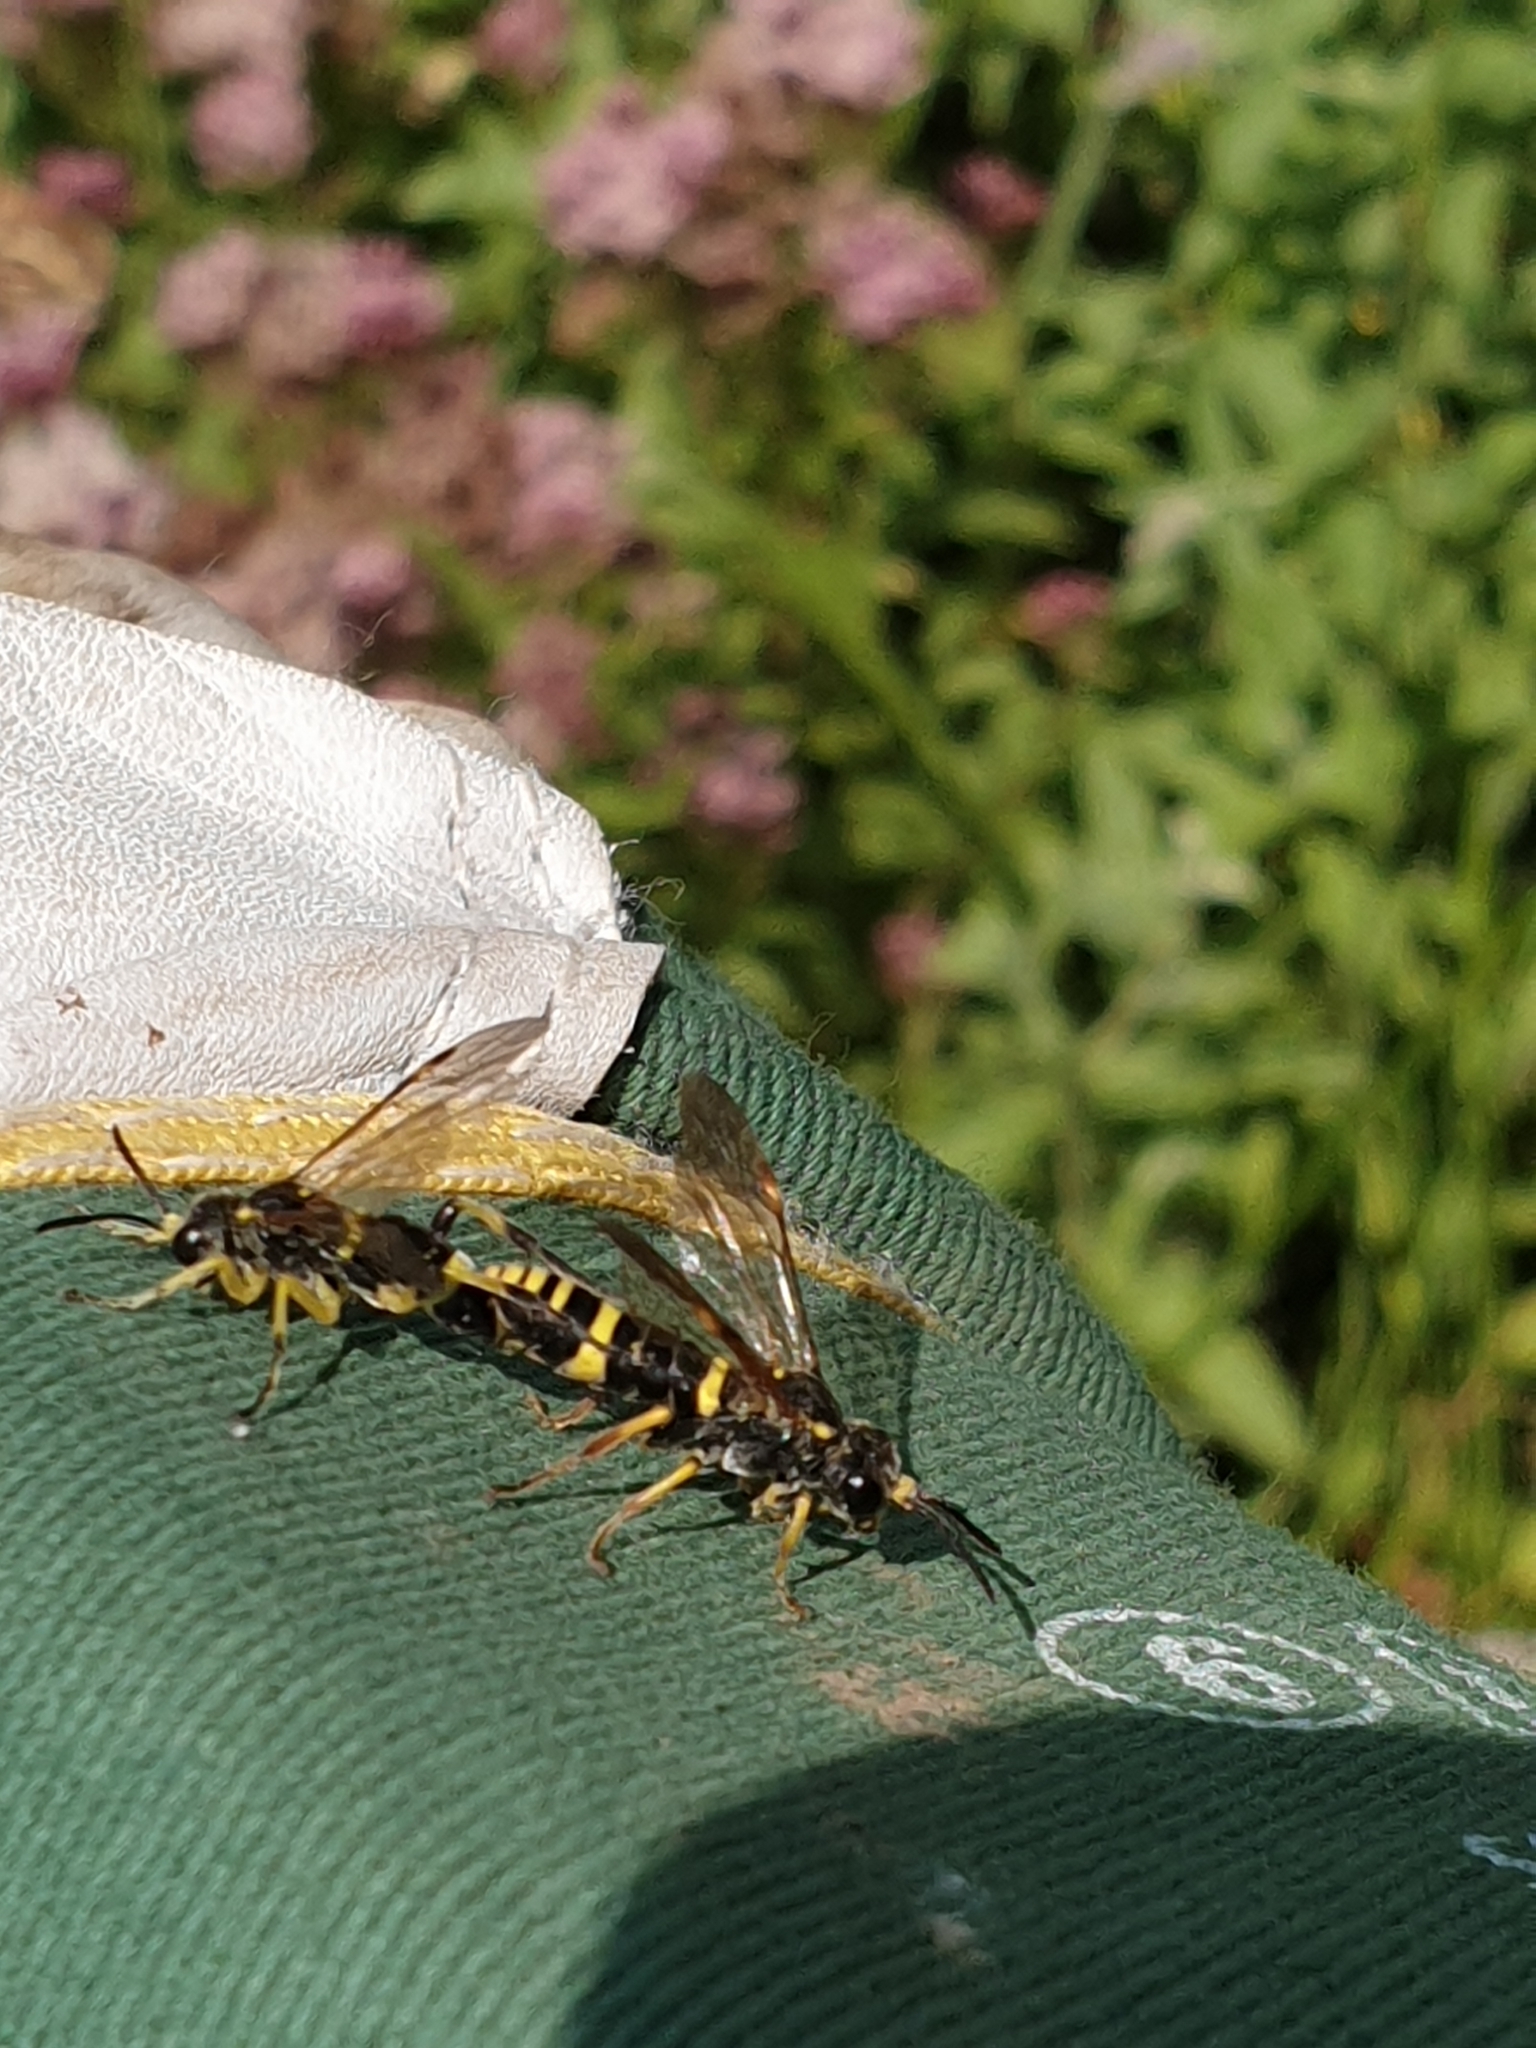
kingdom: Animalia
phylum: Arthropoda
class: Insecta
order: Hymenoptera
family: Tenthredinidae
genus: Tenthredo
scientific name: Tenthredo amoena
